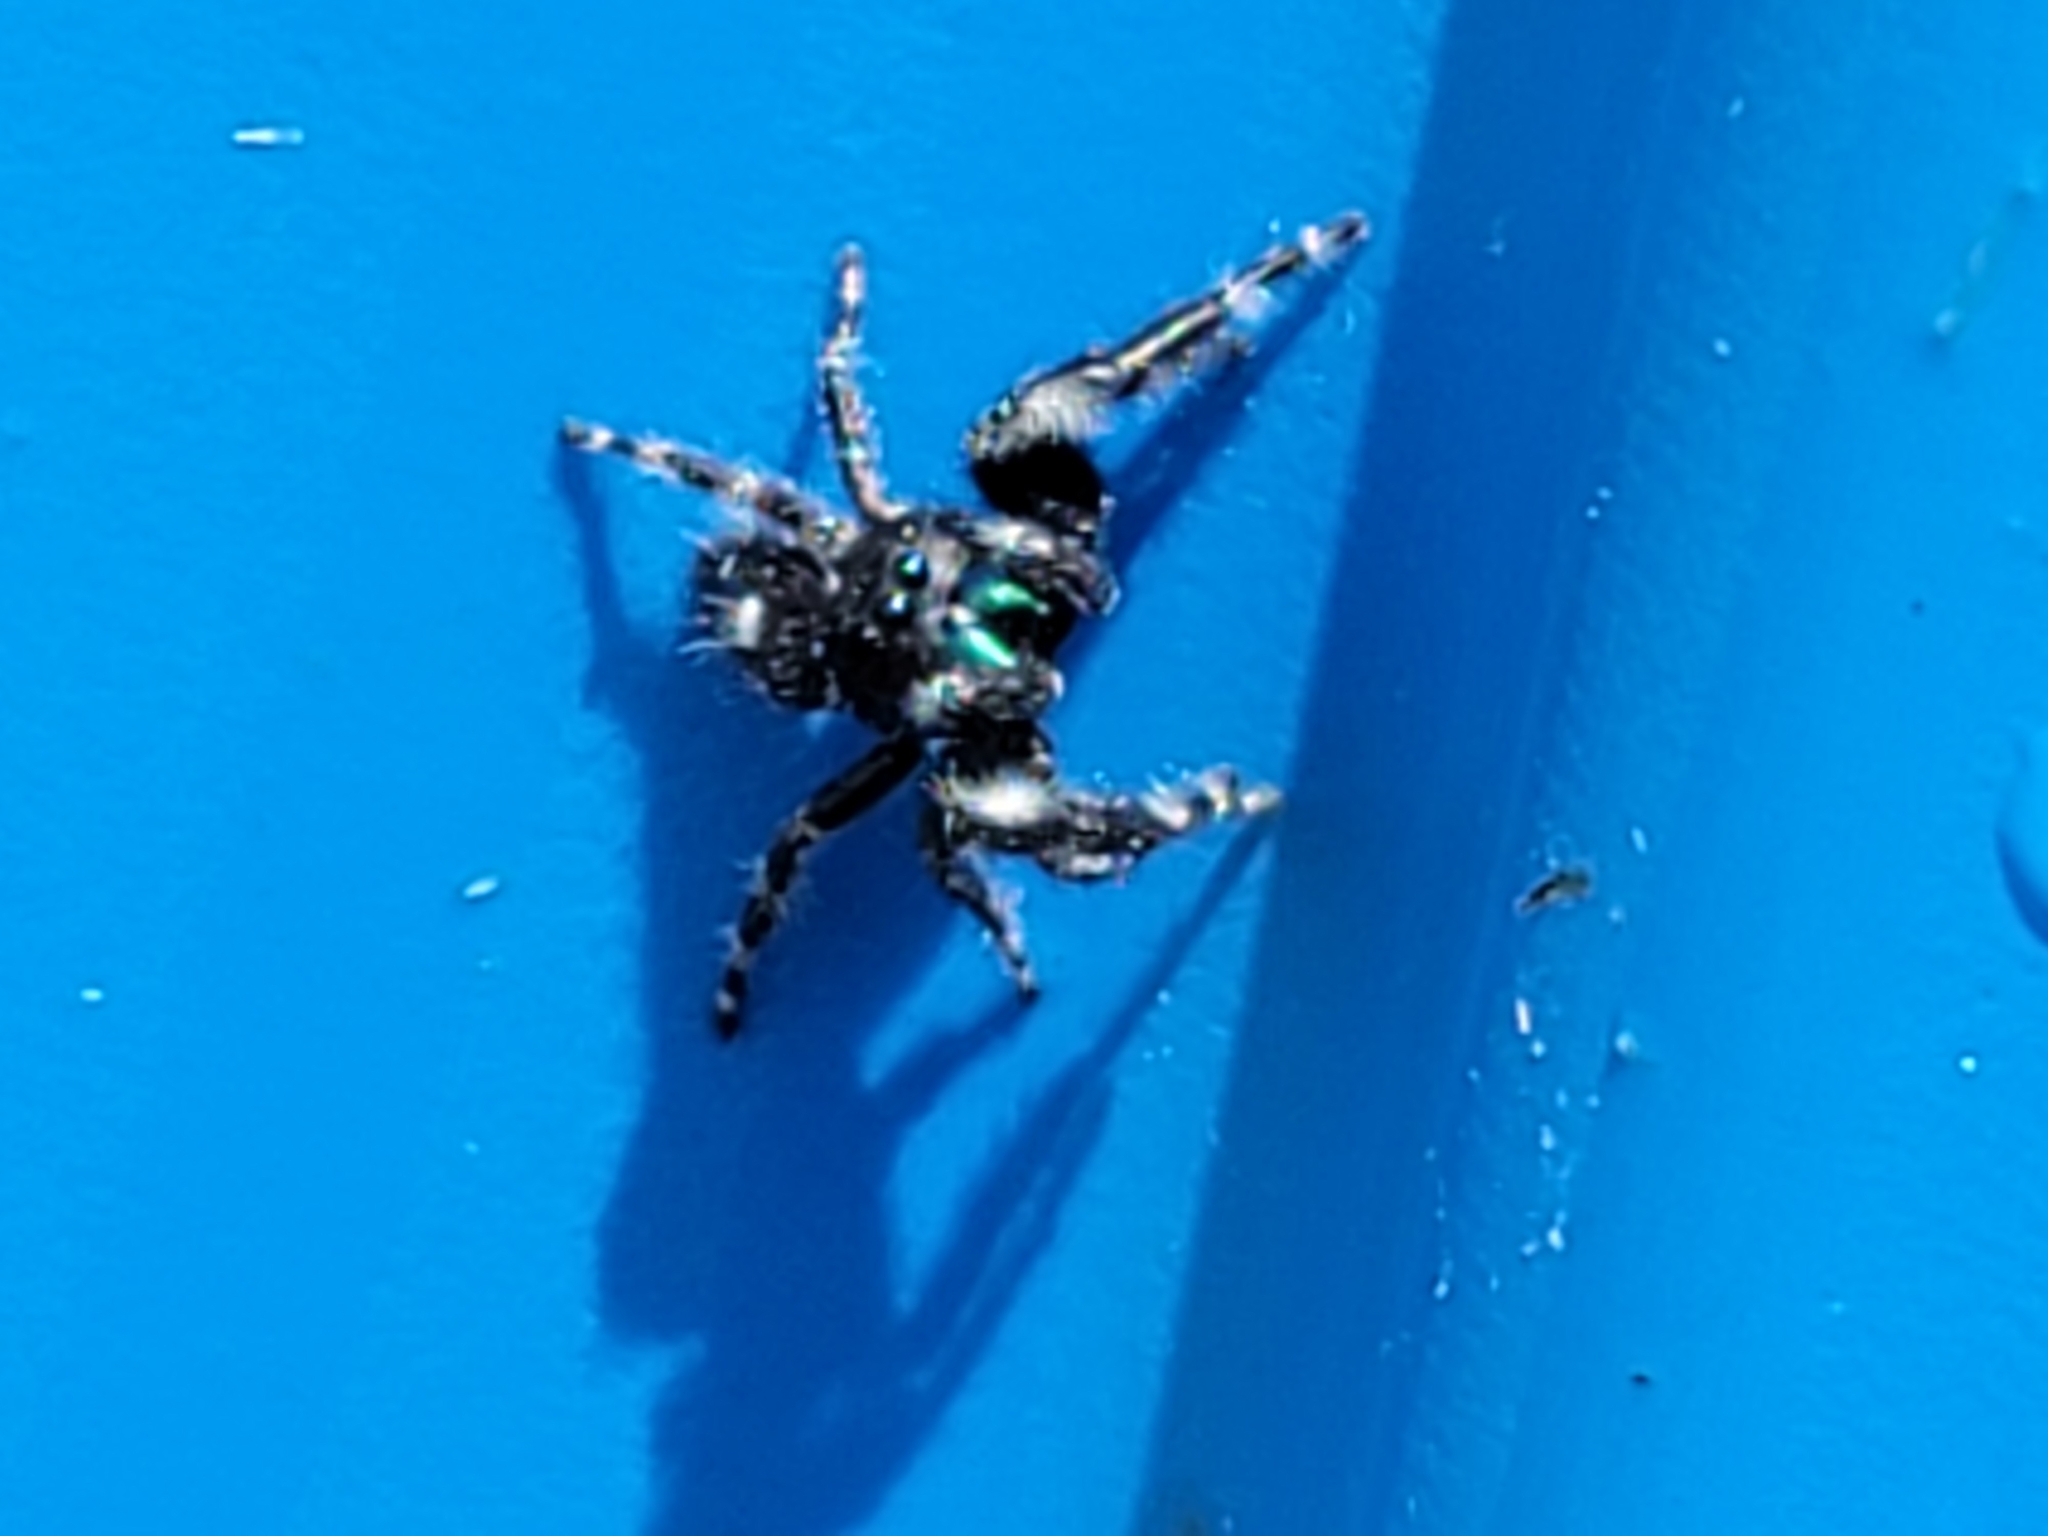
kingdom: Animalia
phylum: Arthropoda
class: Arachnida
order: Araneae
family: Salticidae
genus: Phidippus
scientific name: Phidippus audax
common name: Bold jumper
